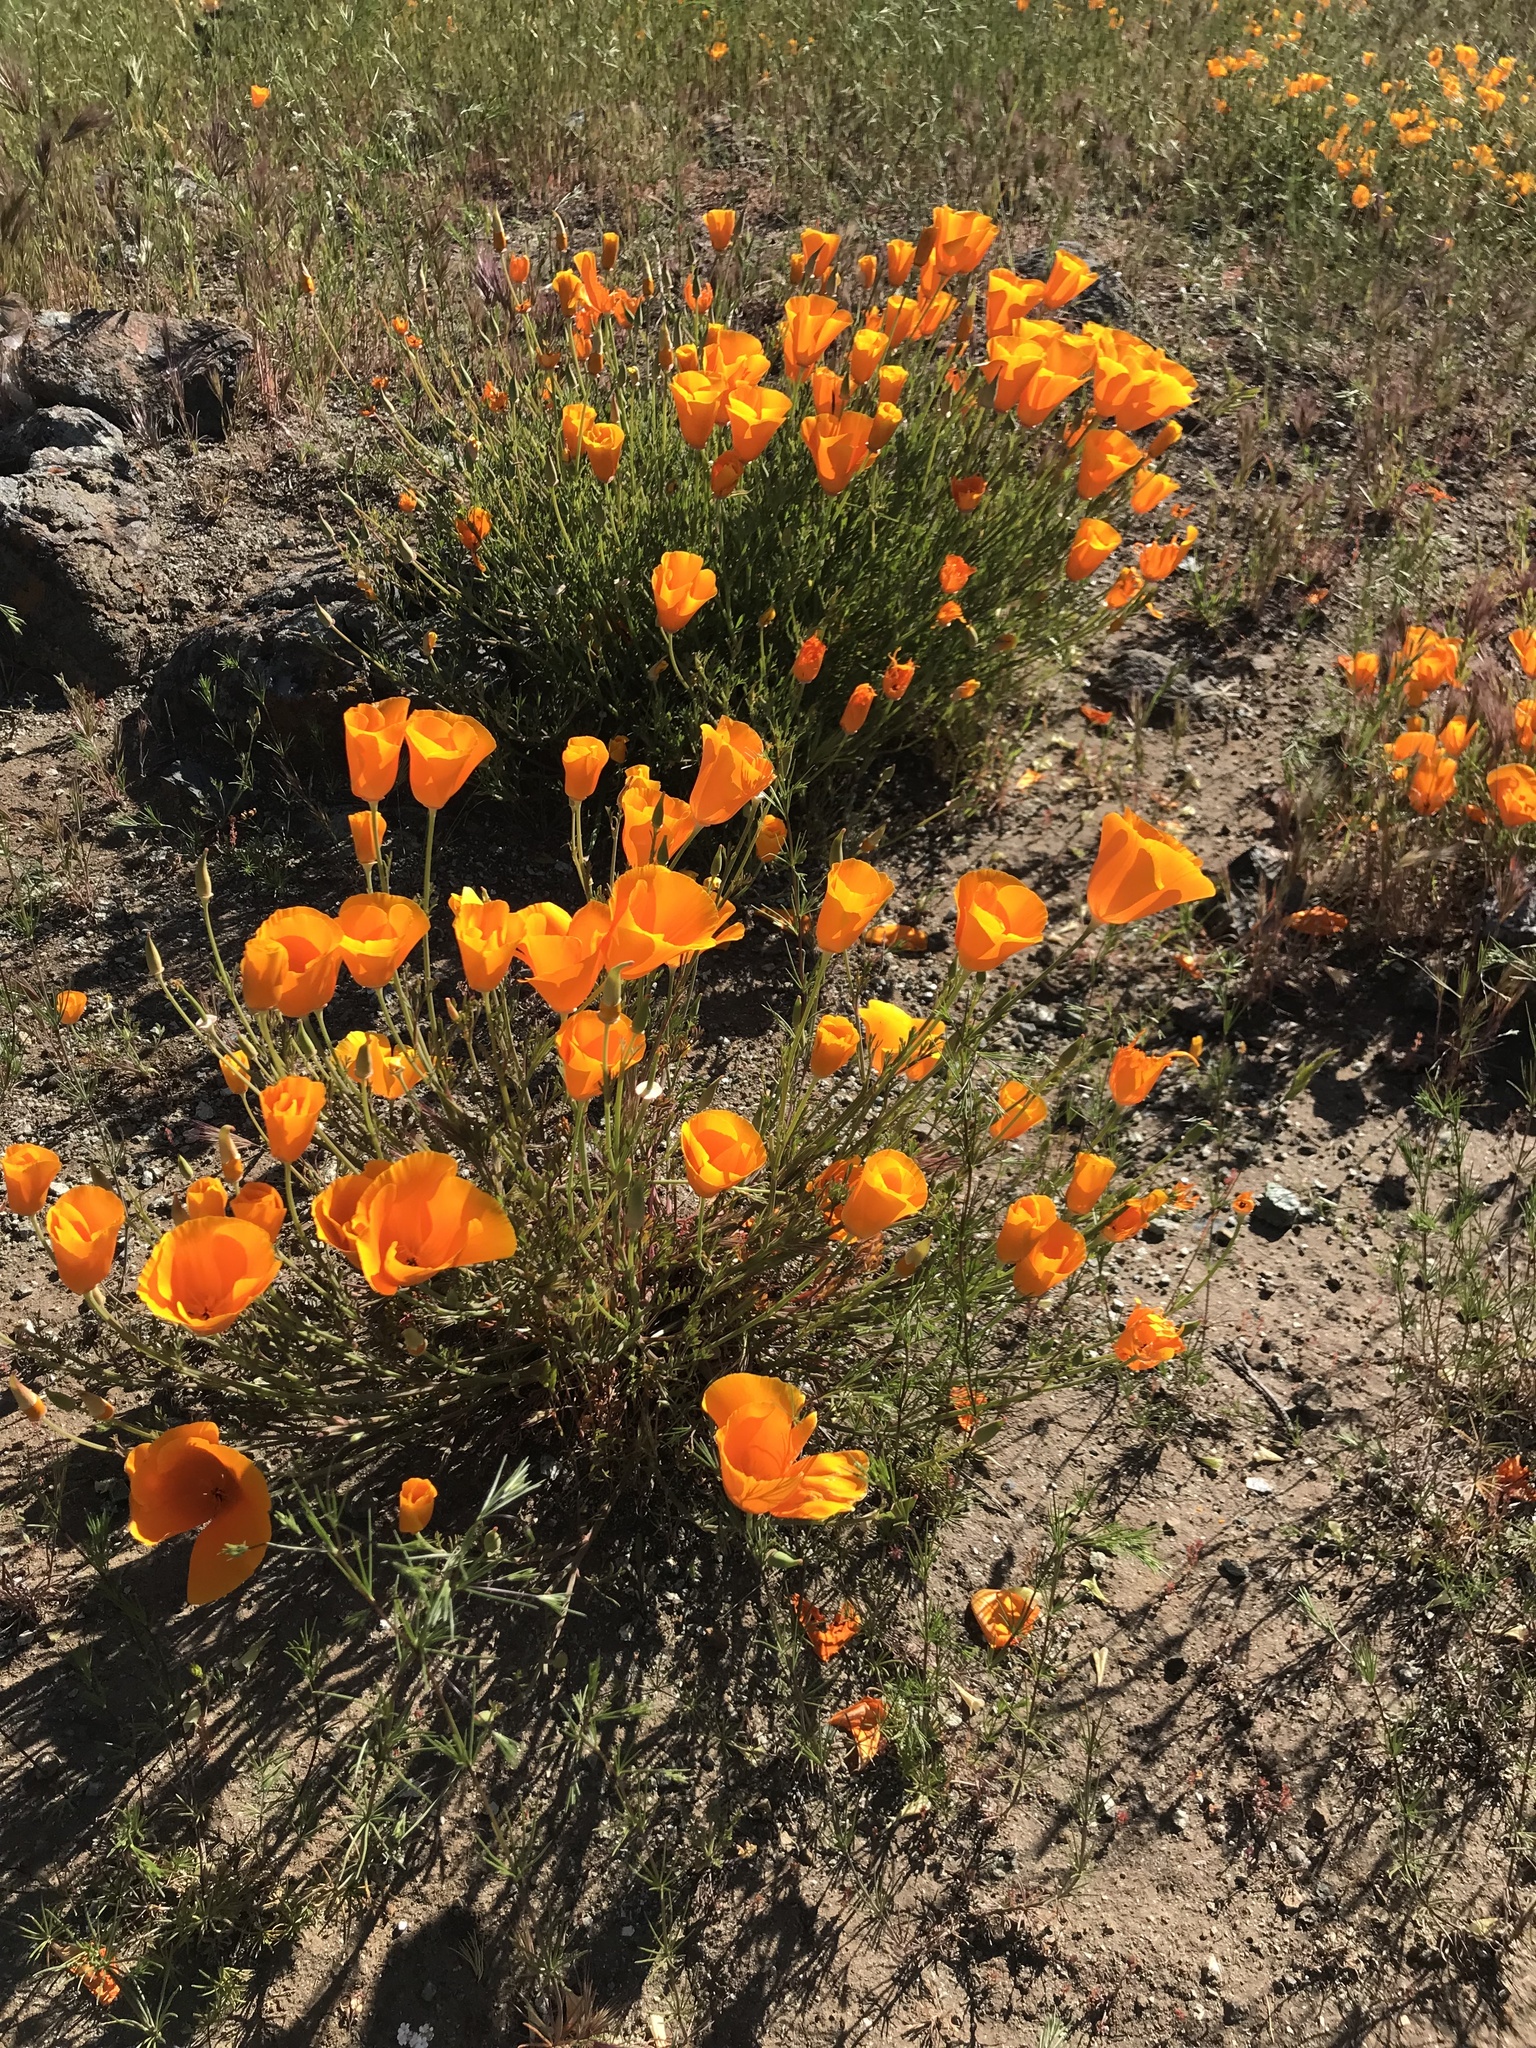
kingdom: Plantae
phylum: Tracheophyta
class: Magnoliopsida
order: Ranunculales
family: Papaveraceae
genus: Eschscholzia
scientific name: Eschscholzia californica
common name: California poppy
